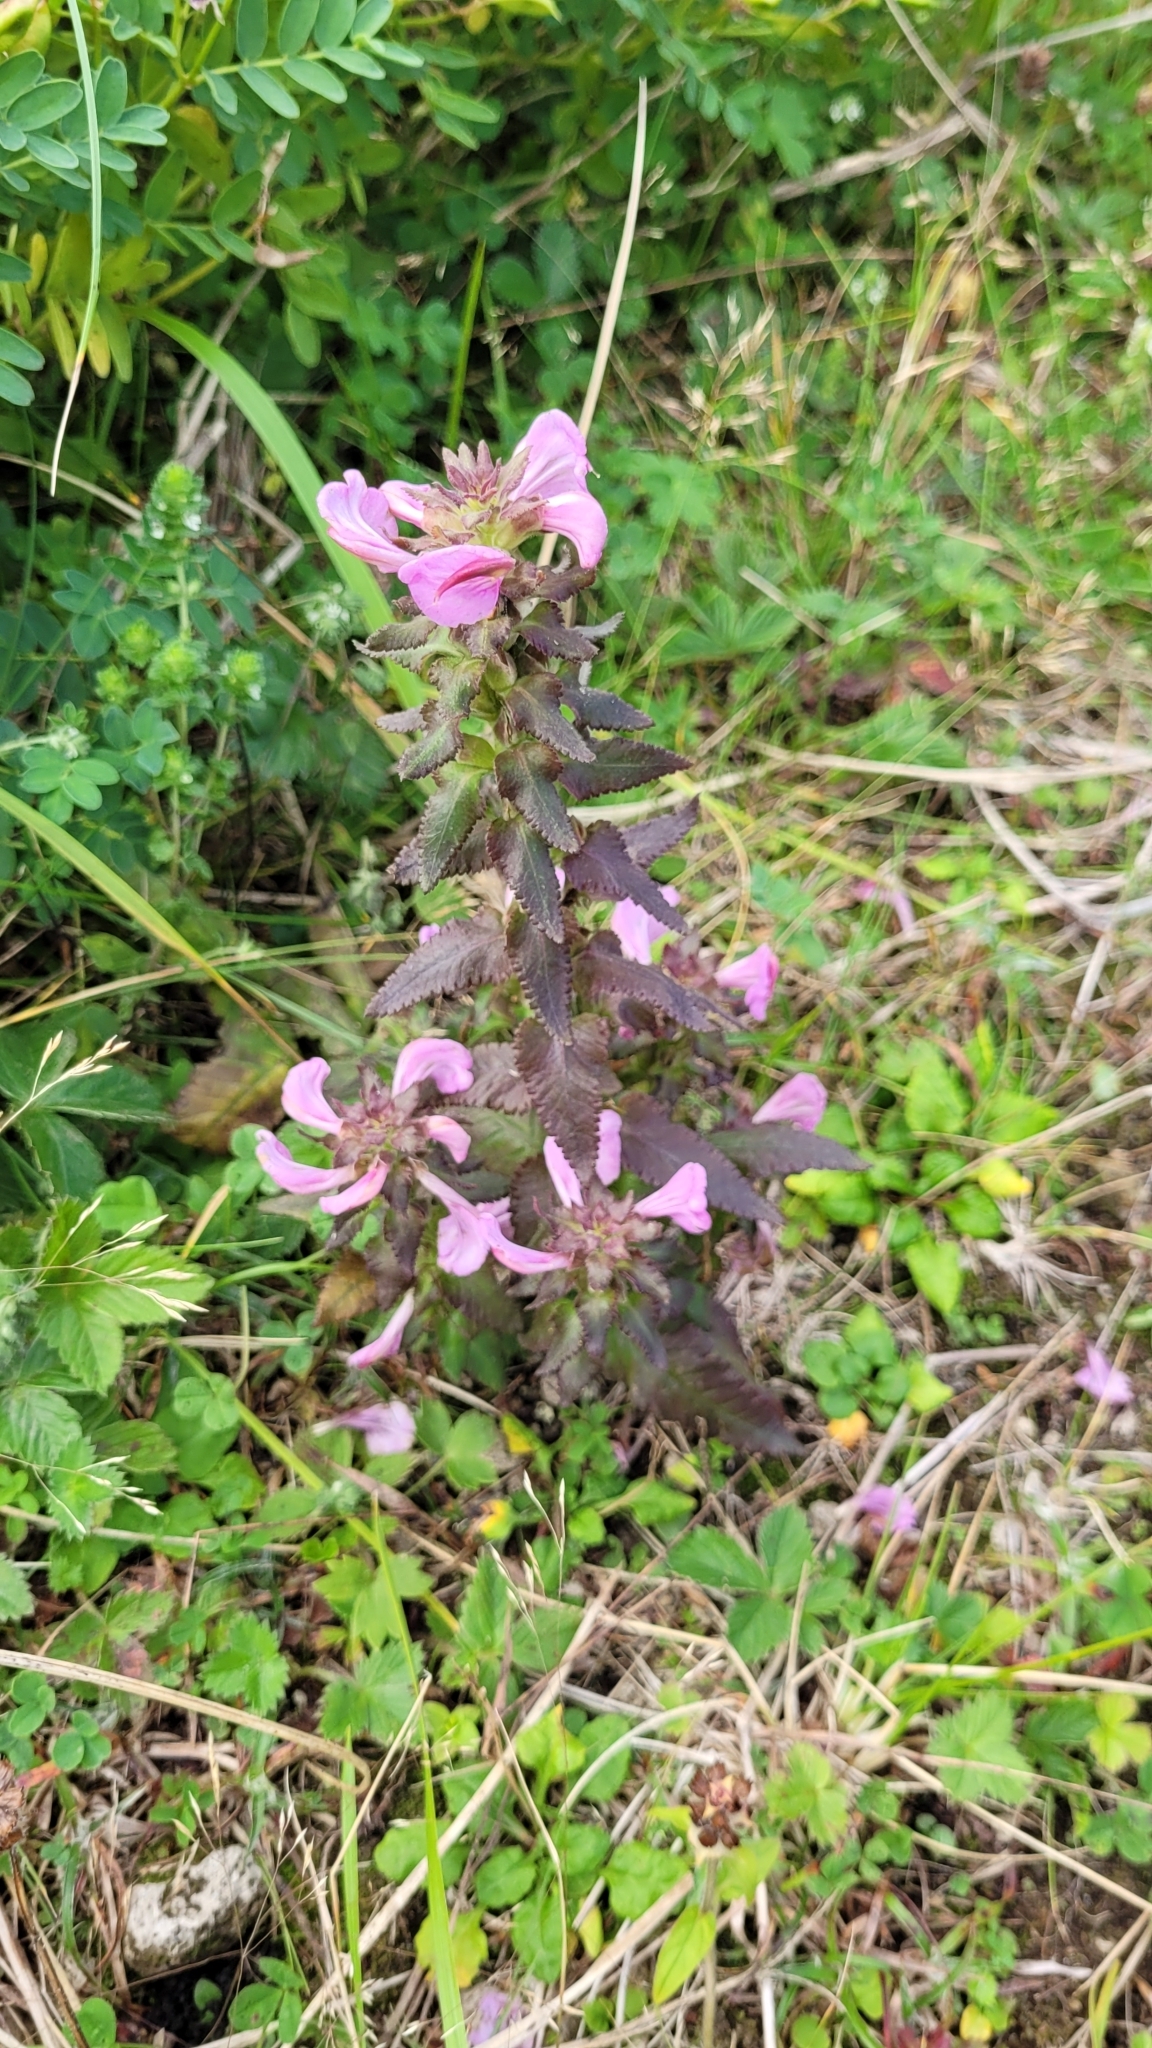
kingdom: Plantae
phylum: Tracheophyta
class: Magnoliopsida
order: Lamiales
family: Orobanchaceae
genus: Pedicularis
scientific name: Pedicularis resupinata
